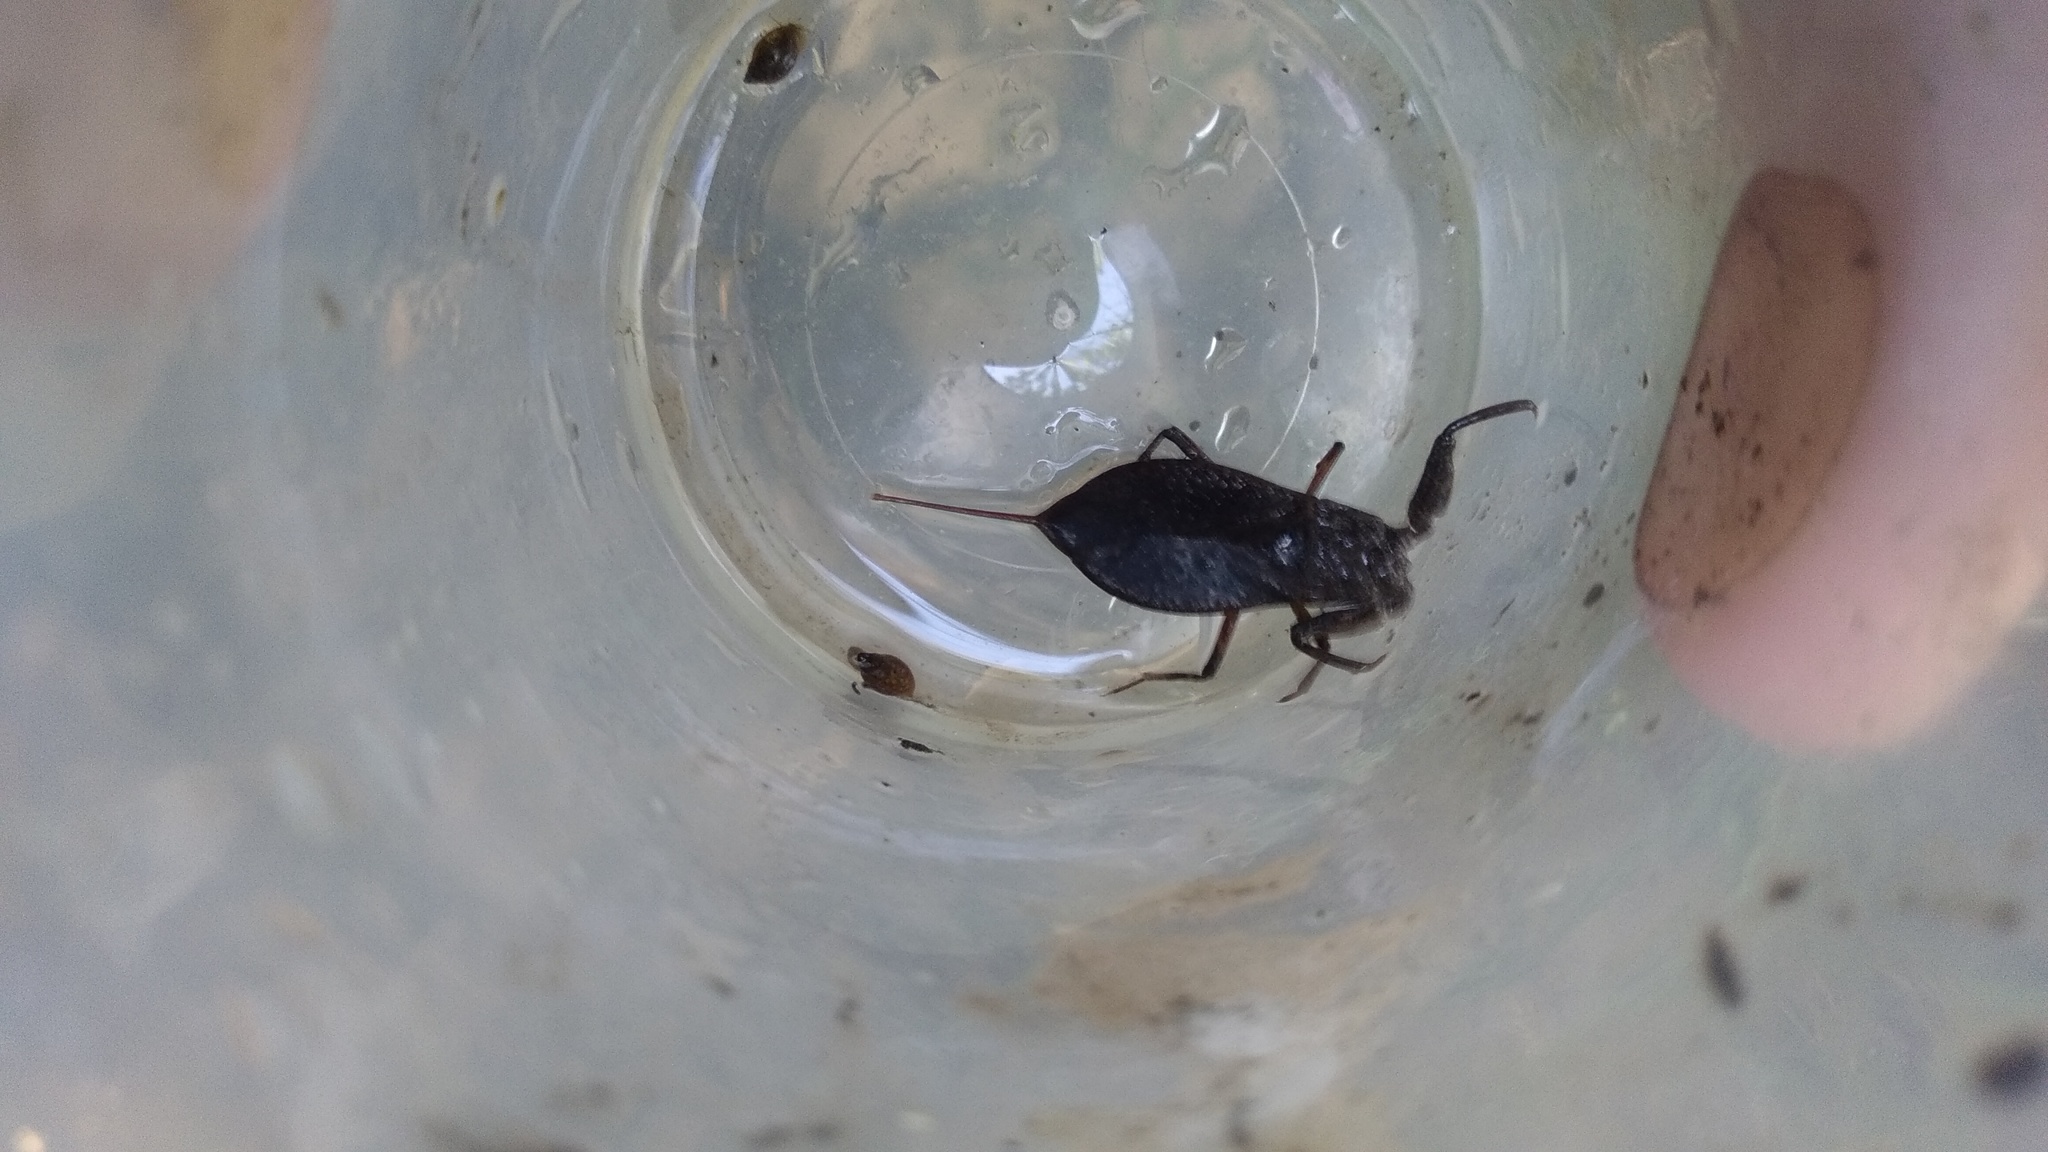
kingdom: Animalia
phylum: Arthropoda
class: Insecta
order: Hemiptera
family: Nepidae
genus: Nepa
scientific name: Nepa cinerea
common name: Water scorpion
